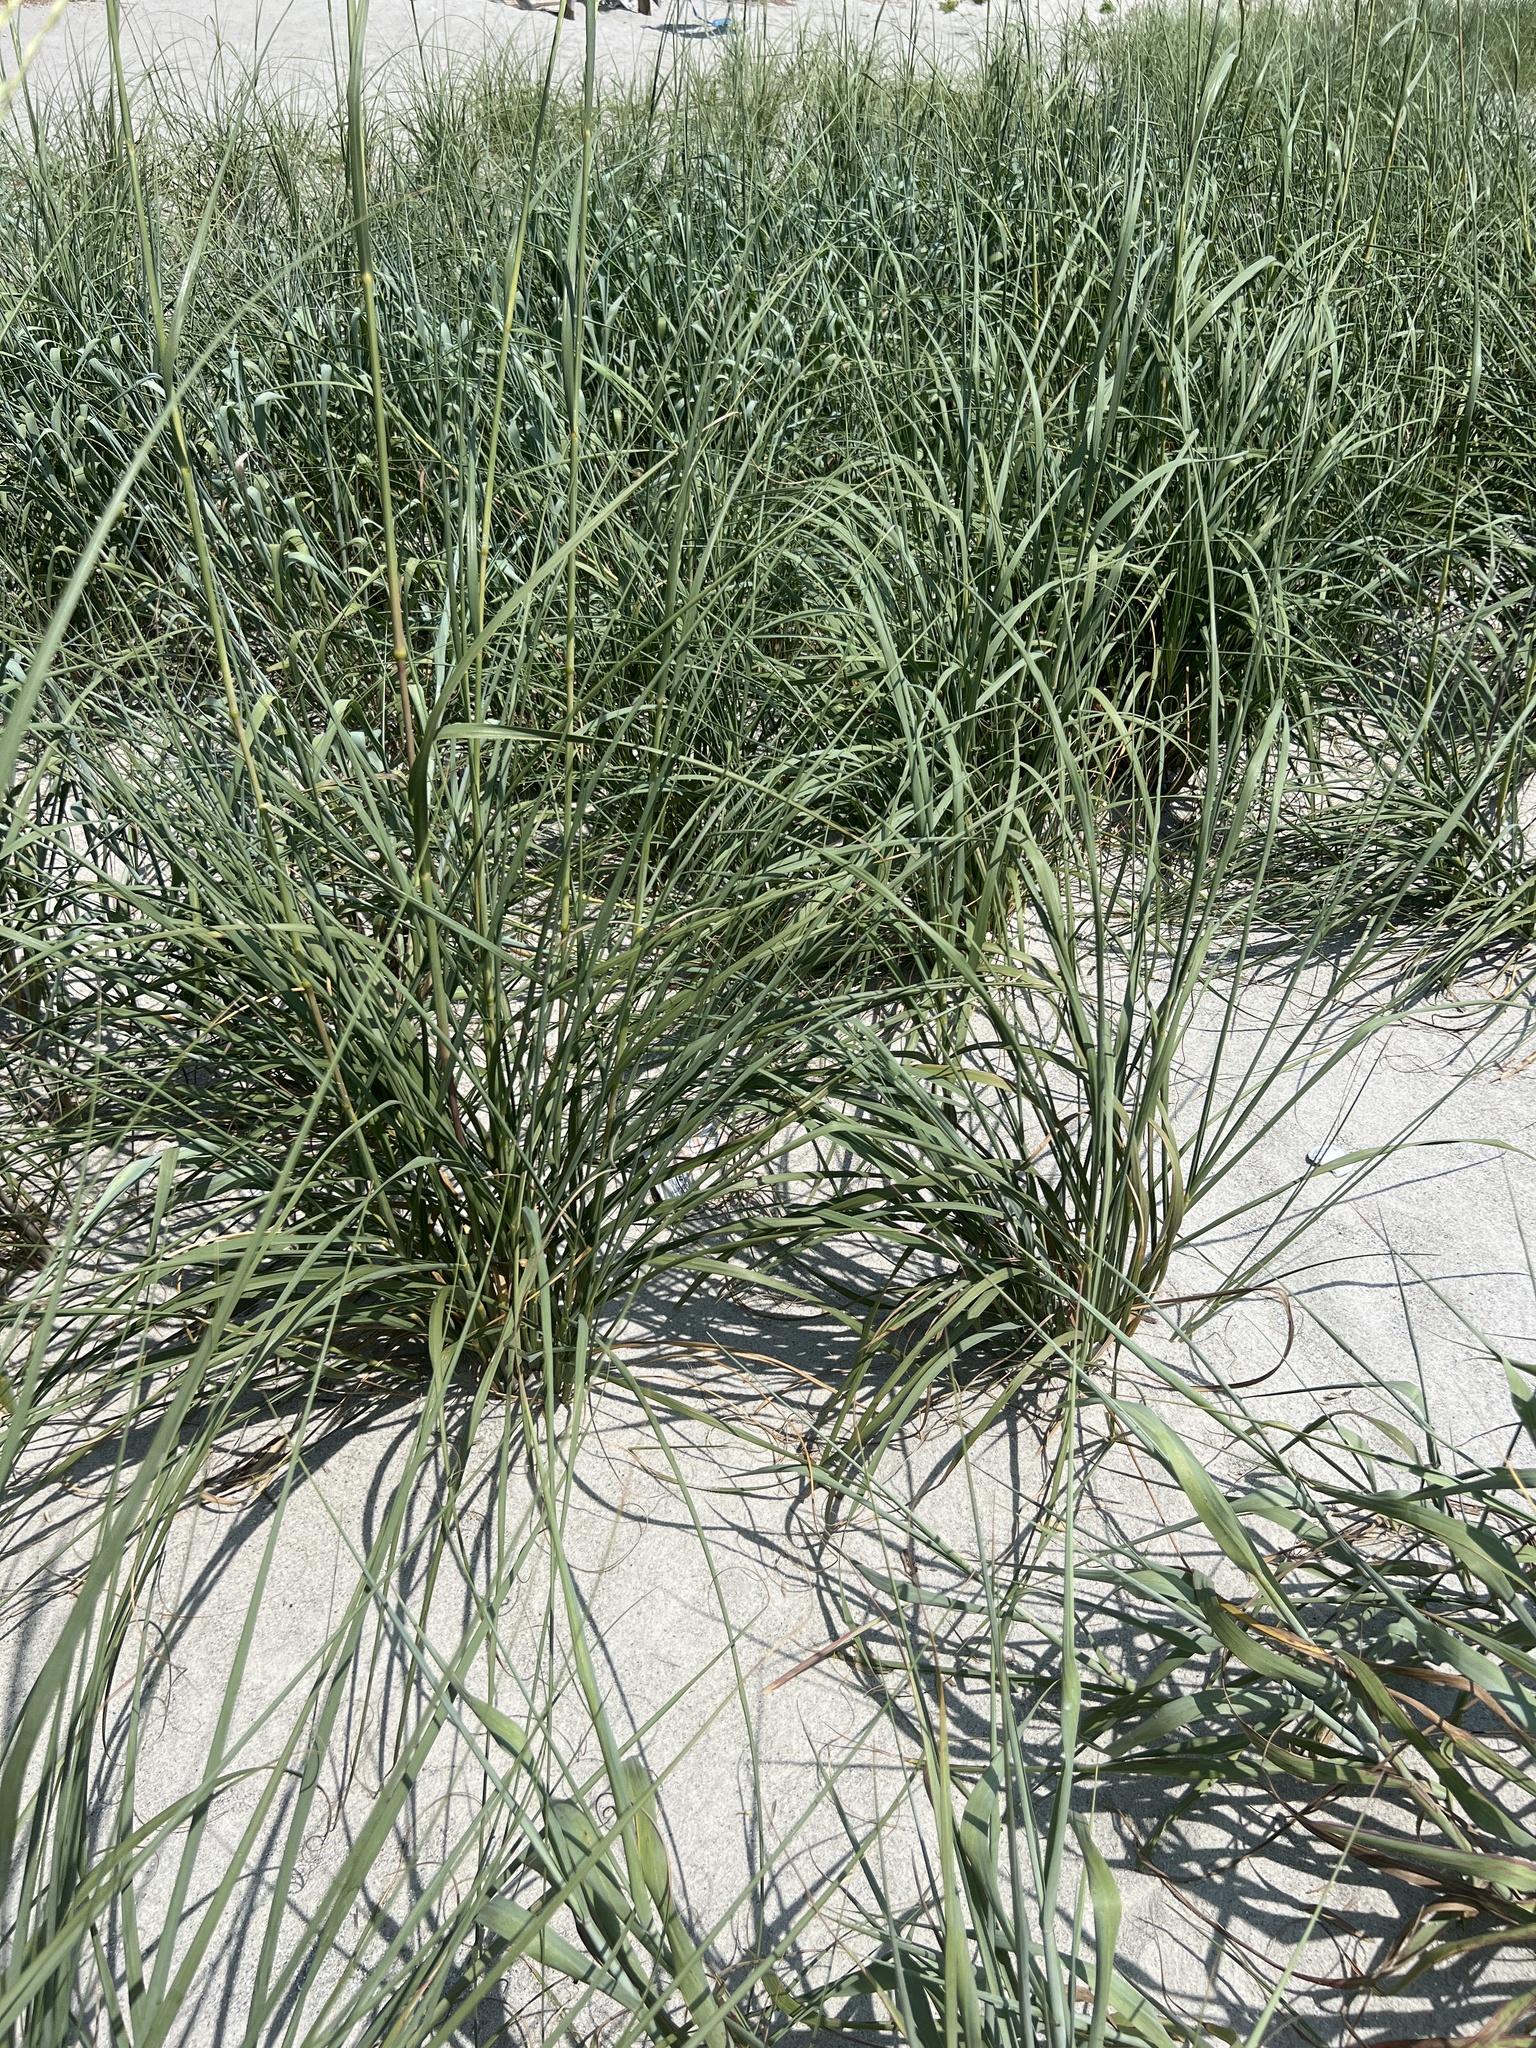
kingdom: Plantae
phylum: Tracheophyta
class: Liliopsida
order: Poales
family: Poaceae
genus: Uniola
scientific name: Uniola paniculata
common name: Seaside-oats
